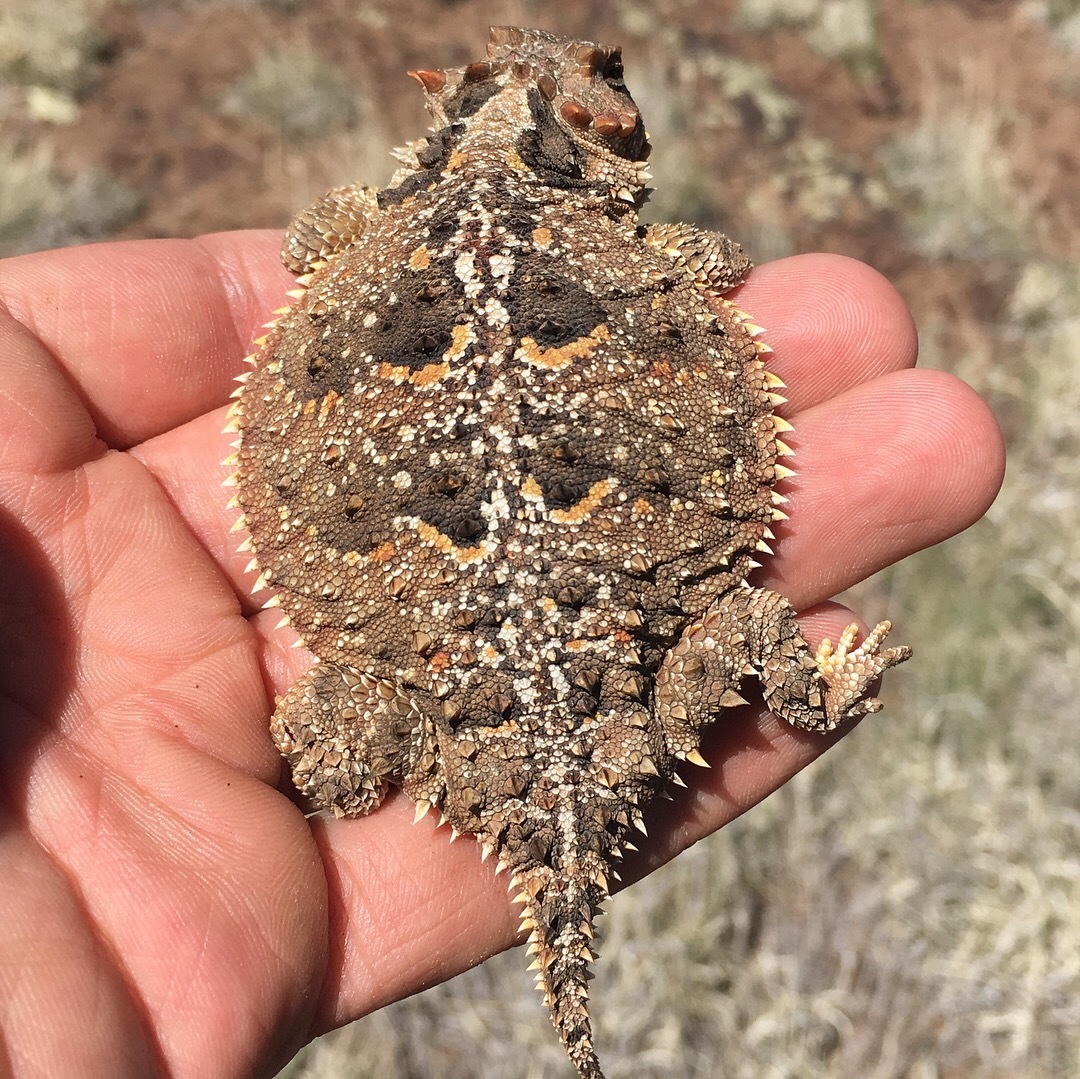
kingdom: Animalia
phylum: Chordata
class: Squamata
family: Phrynosomatidae
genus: Phrynosoma
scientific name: Phrynosoma hernandesi
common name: Greater short-horned lizard
